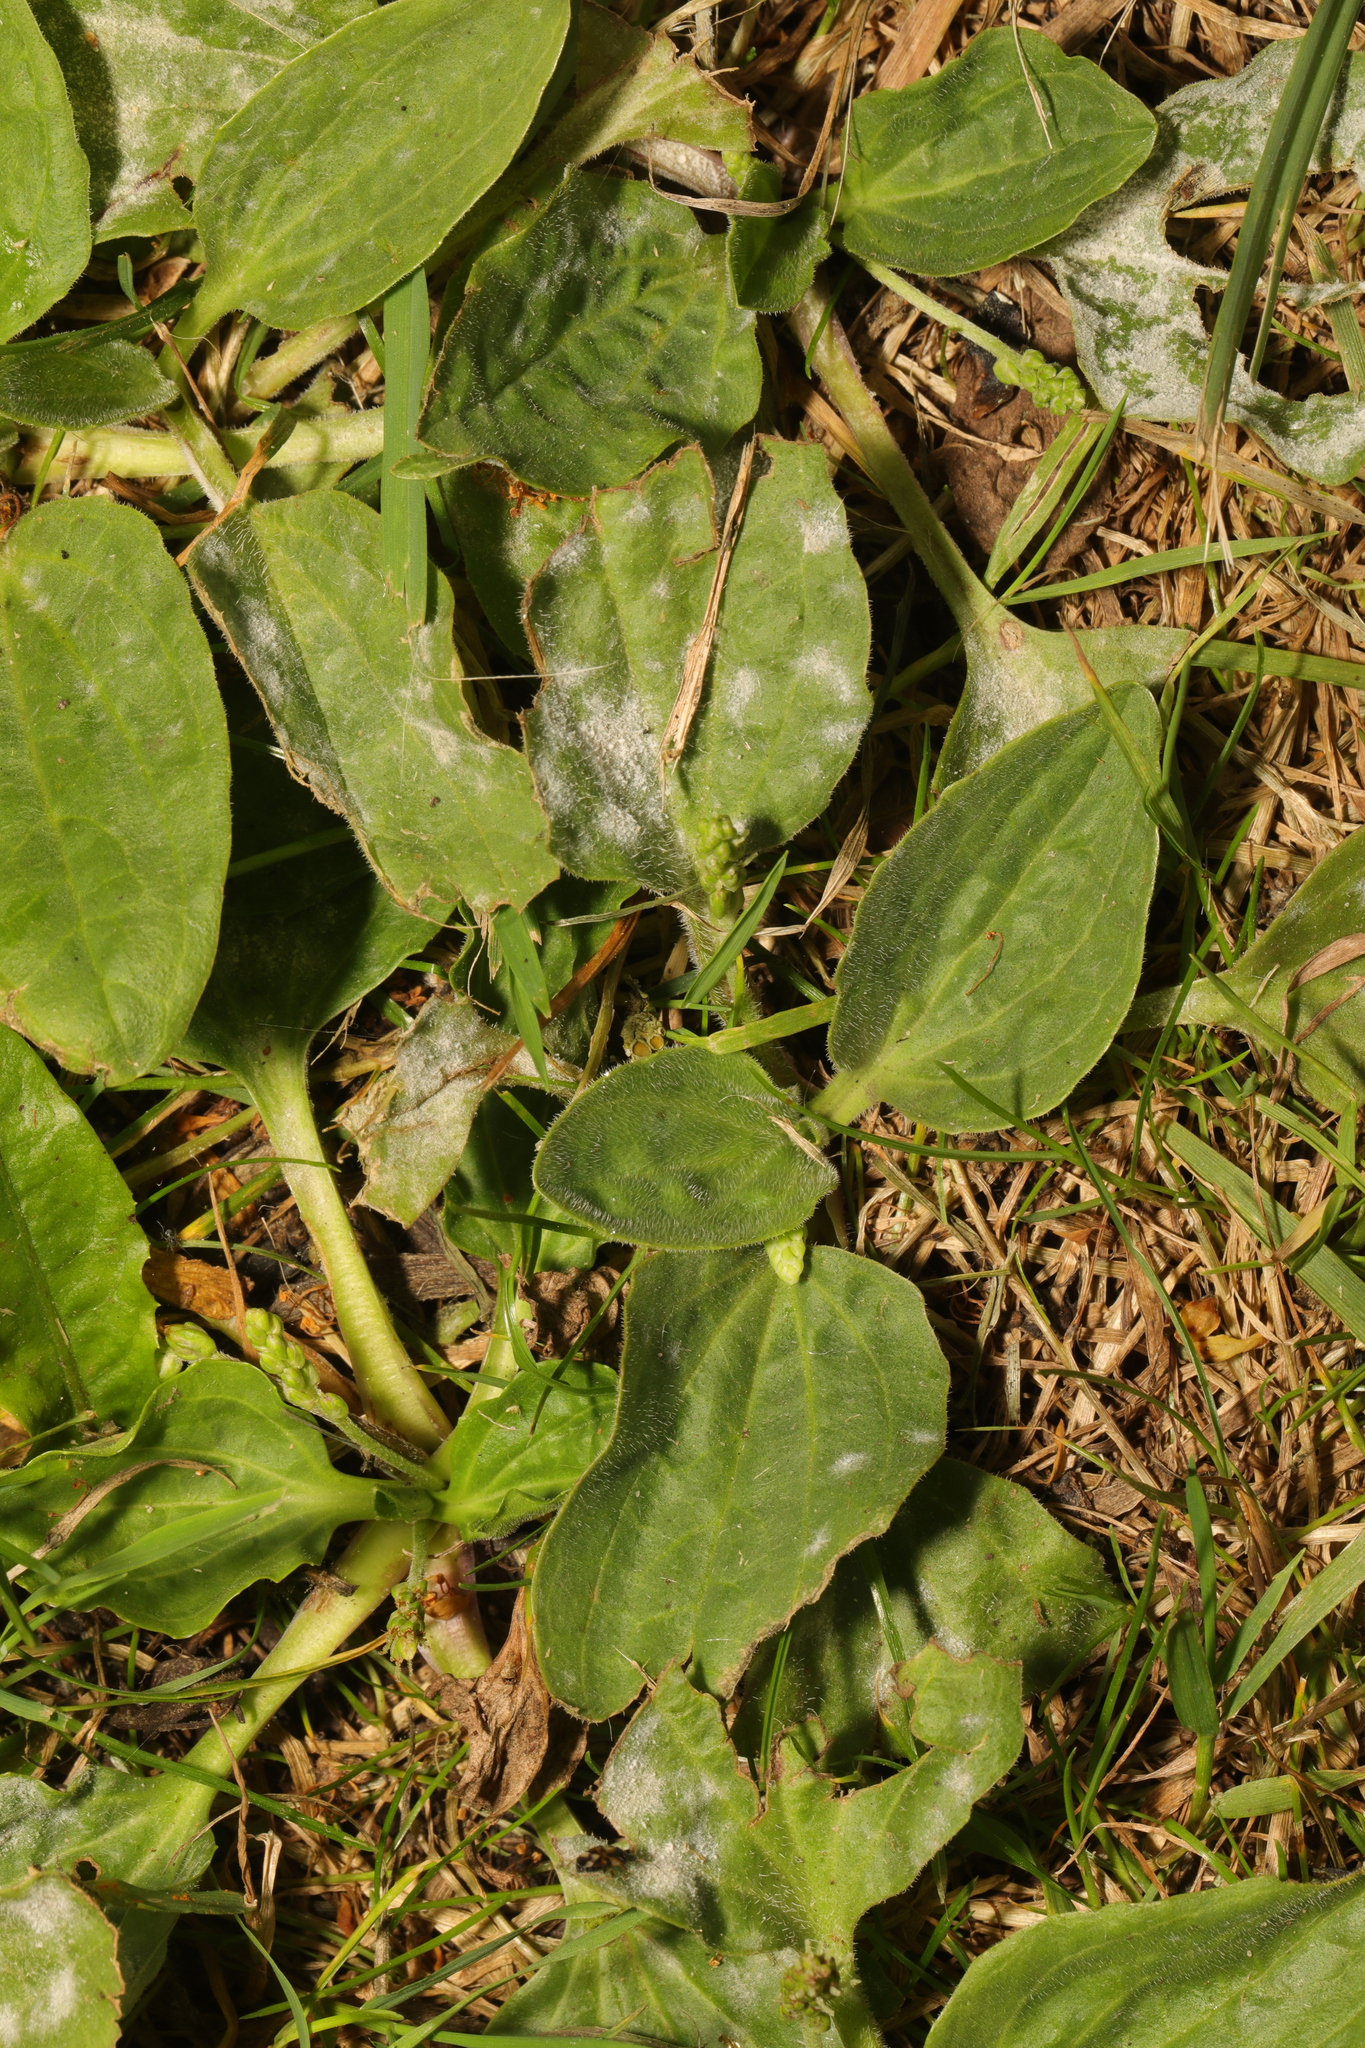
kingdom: Plantae
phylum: Tracheophyta
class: Magnoliopsida
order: Lamiales
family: Plantaginaceae
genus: Plantago
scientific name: Plantago major
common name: Common plantain
